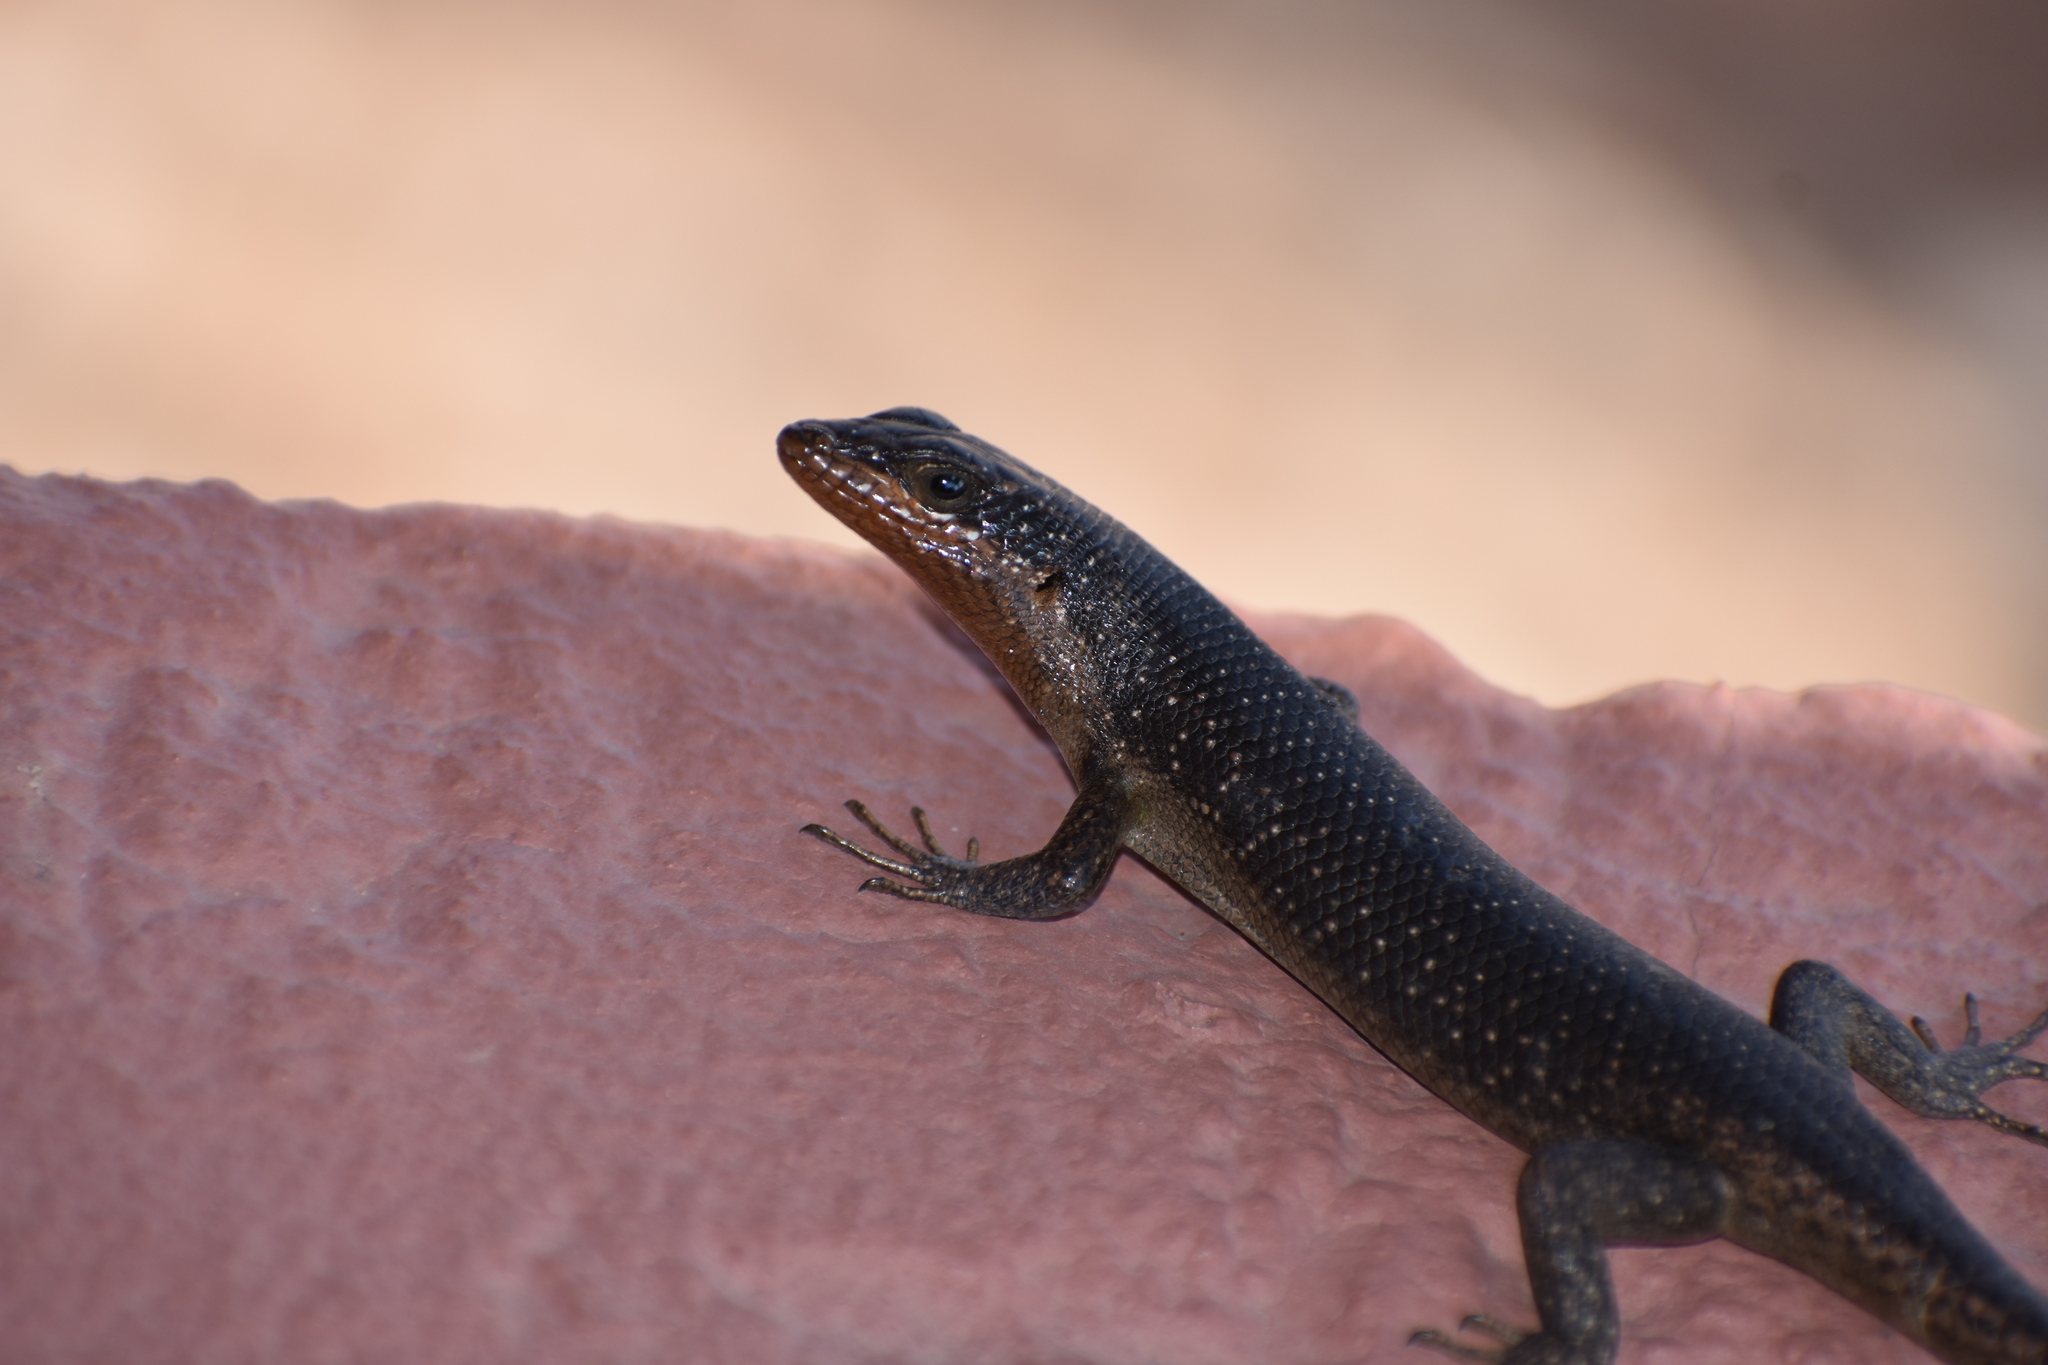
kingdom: Animalia
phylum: Chordata
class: Squamata
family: Scincidae
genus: Trachylepis
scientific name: Trachylepis sparsa
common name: Karasburg tree skink
